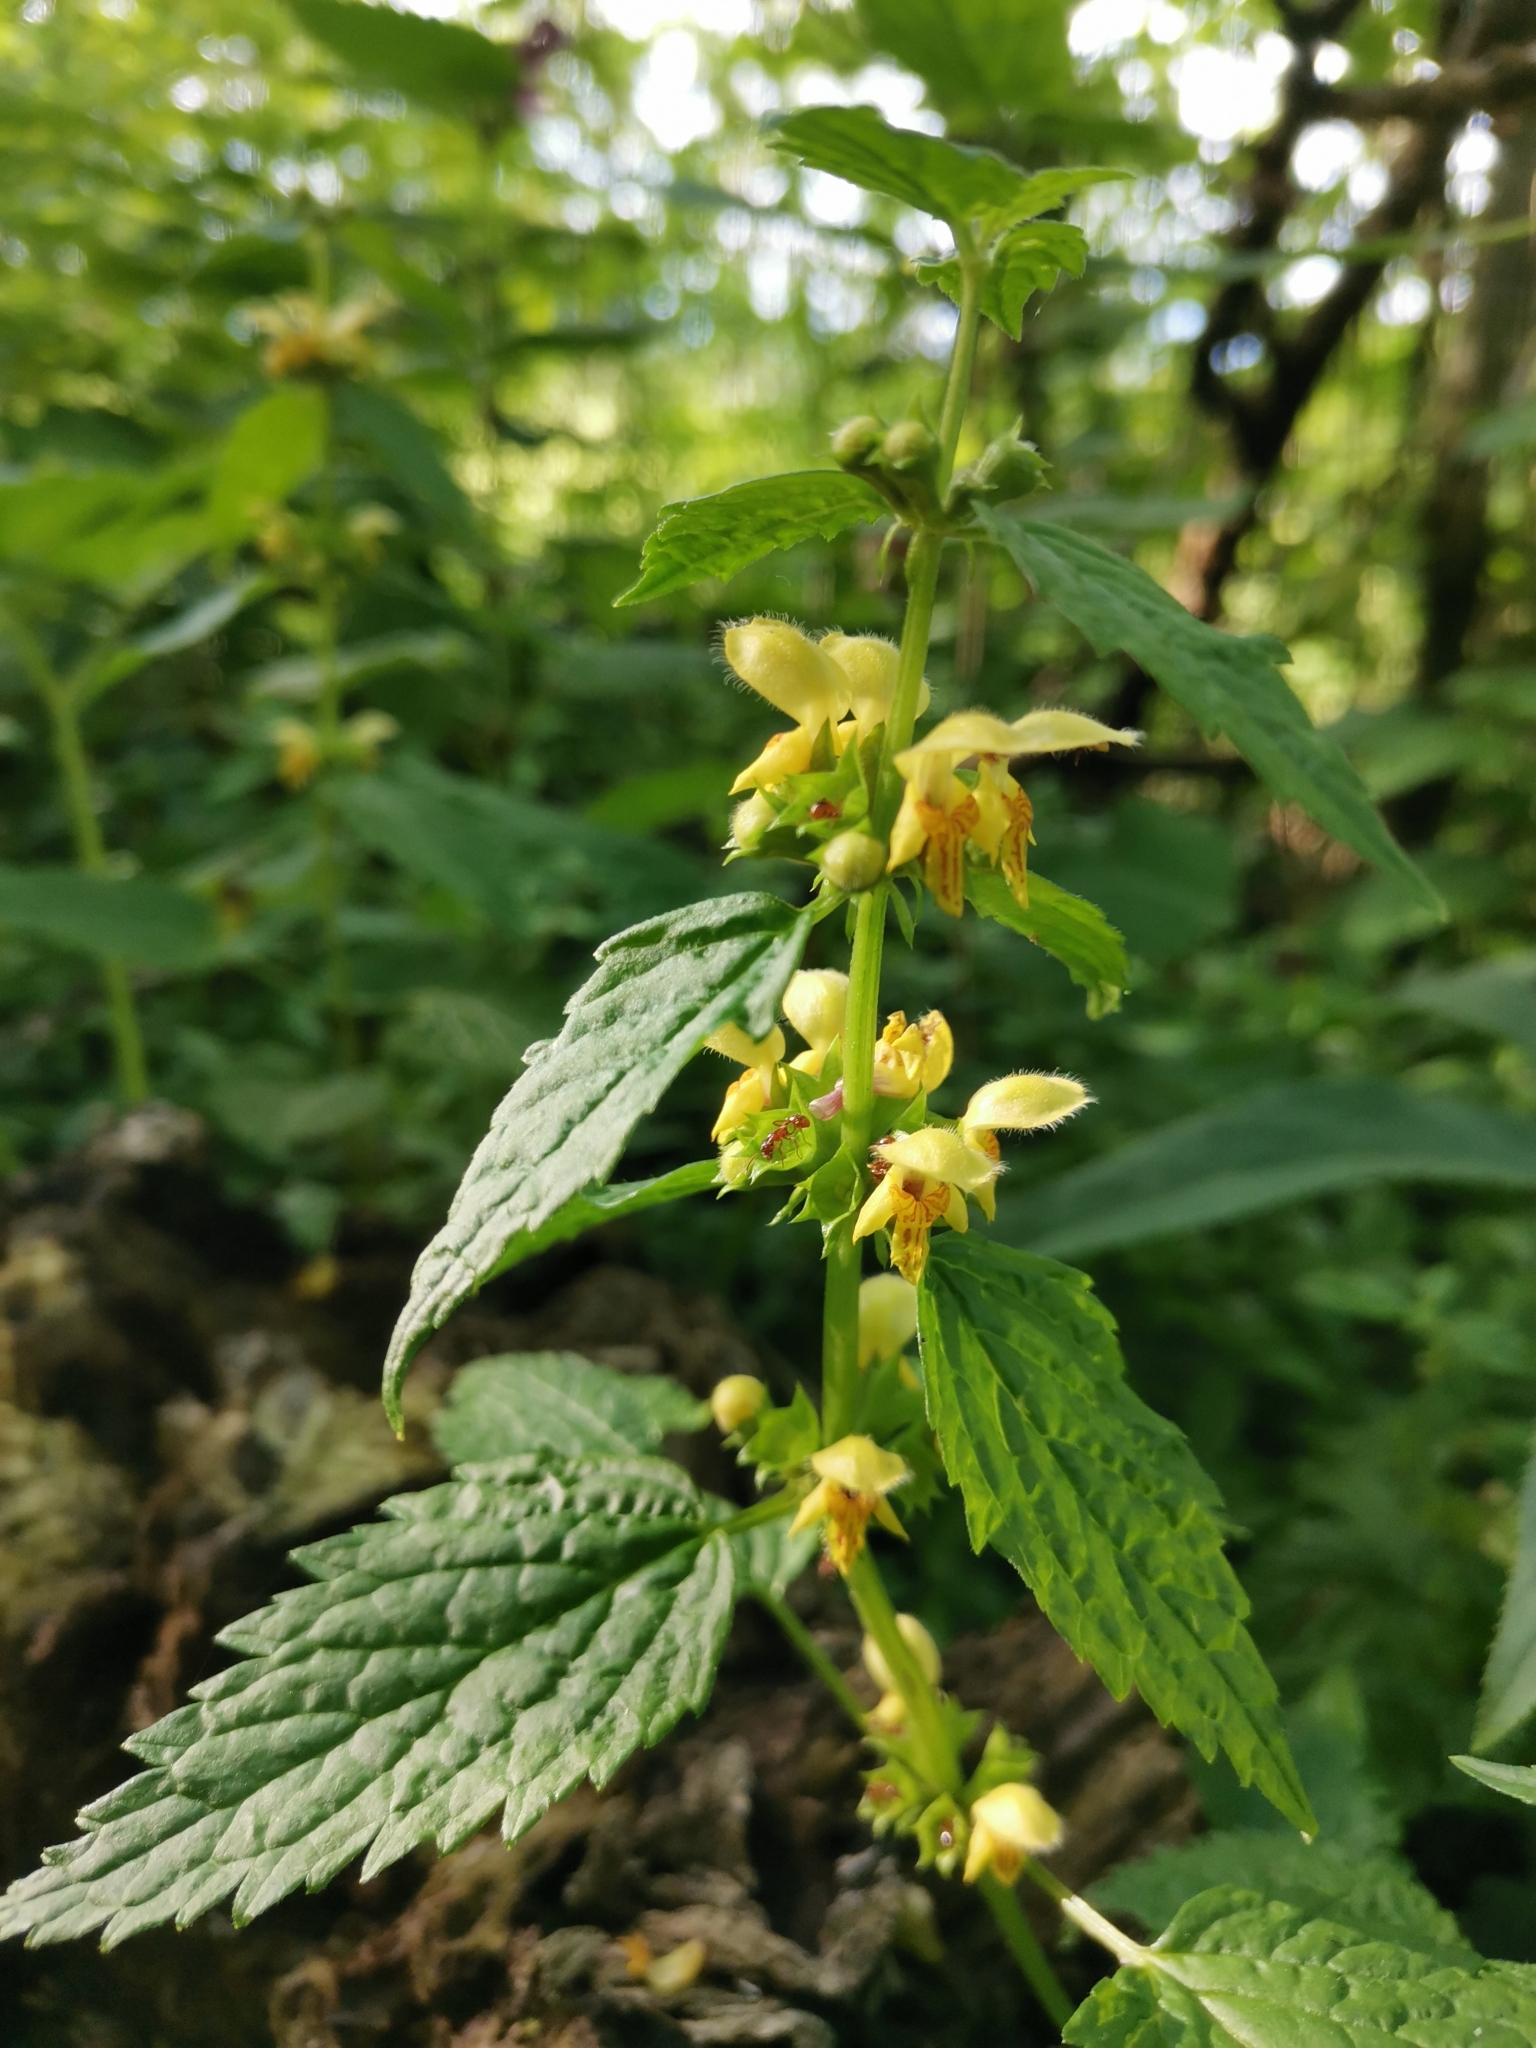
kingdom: Plantae
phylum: Tracheophyta
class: Magnoliopsida
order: Lamiales
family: Lamiaceae
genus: Lamium
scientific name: Lamium galeobdolon
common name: Yellow archangel
